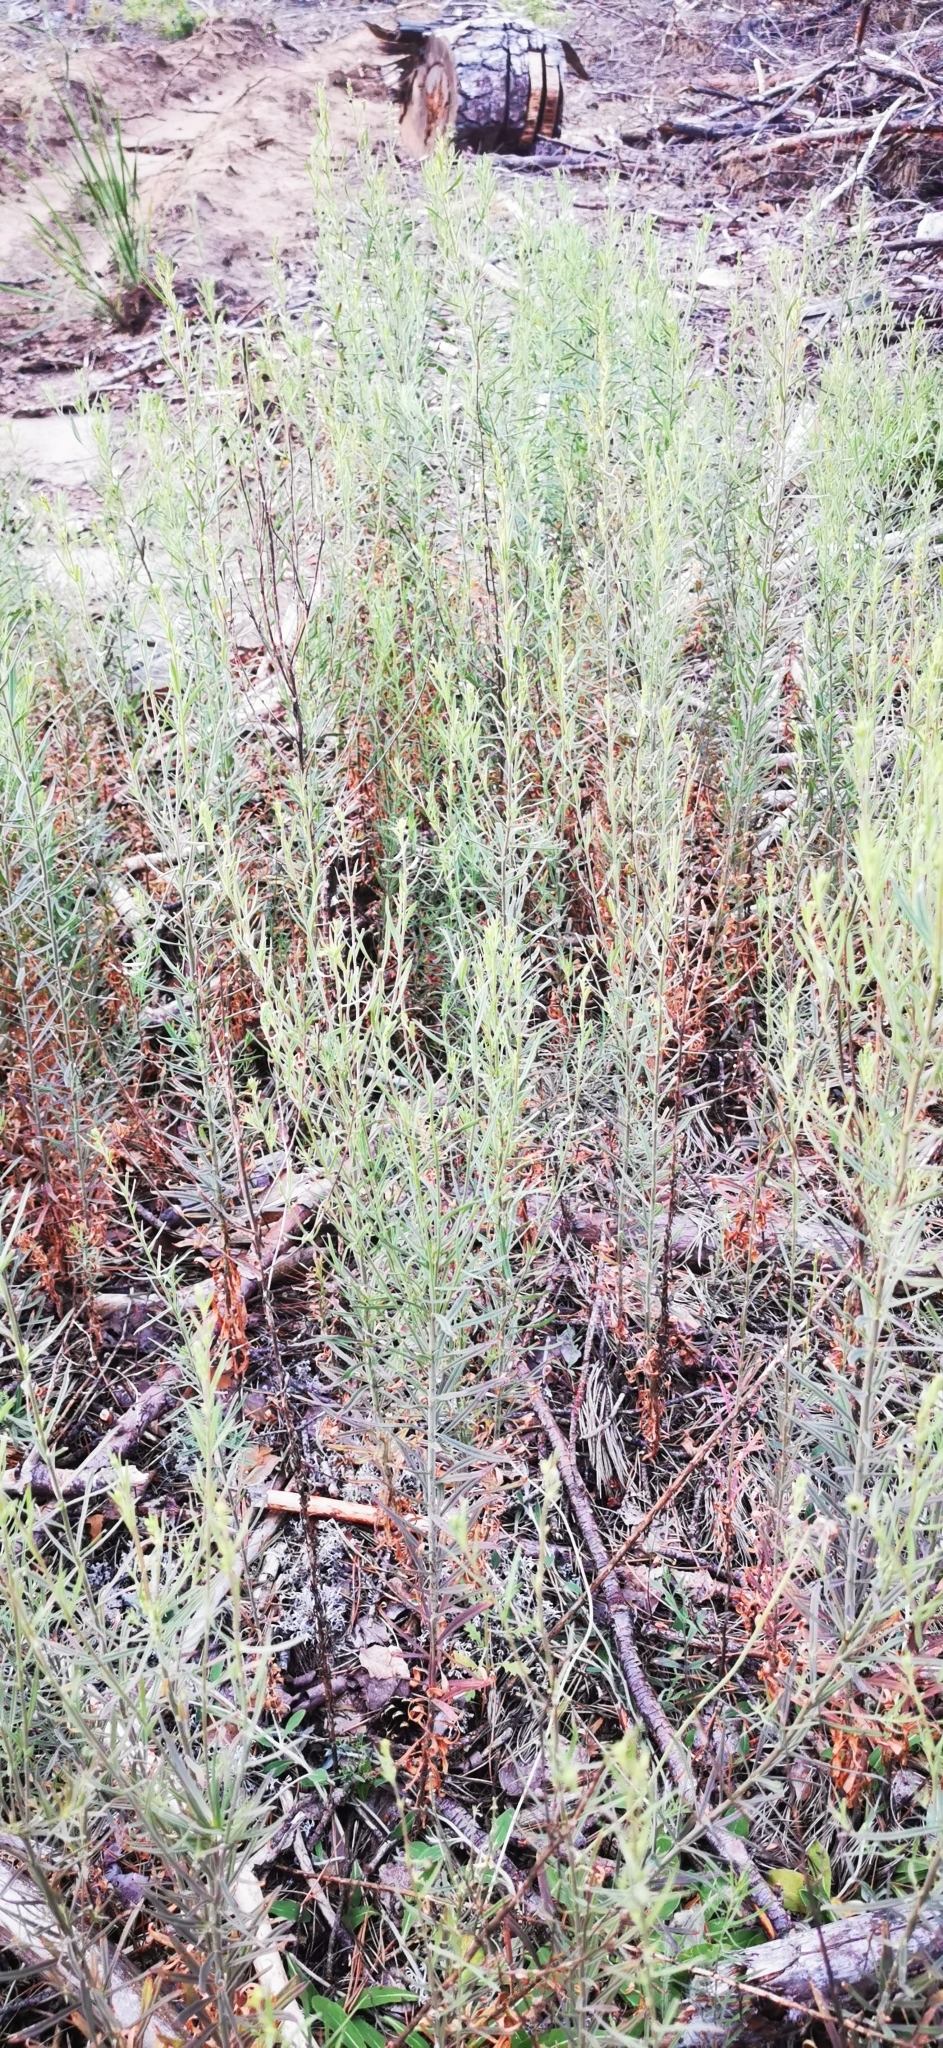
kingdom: Plantae
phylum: Tracheophyta
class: Magnoliopsida
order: Lamiales
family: Plantaginaceae
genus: Linaria
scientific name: Linaria vulgaris
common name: Butter and eggs
